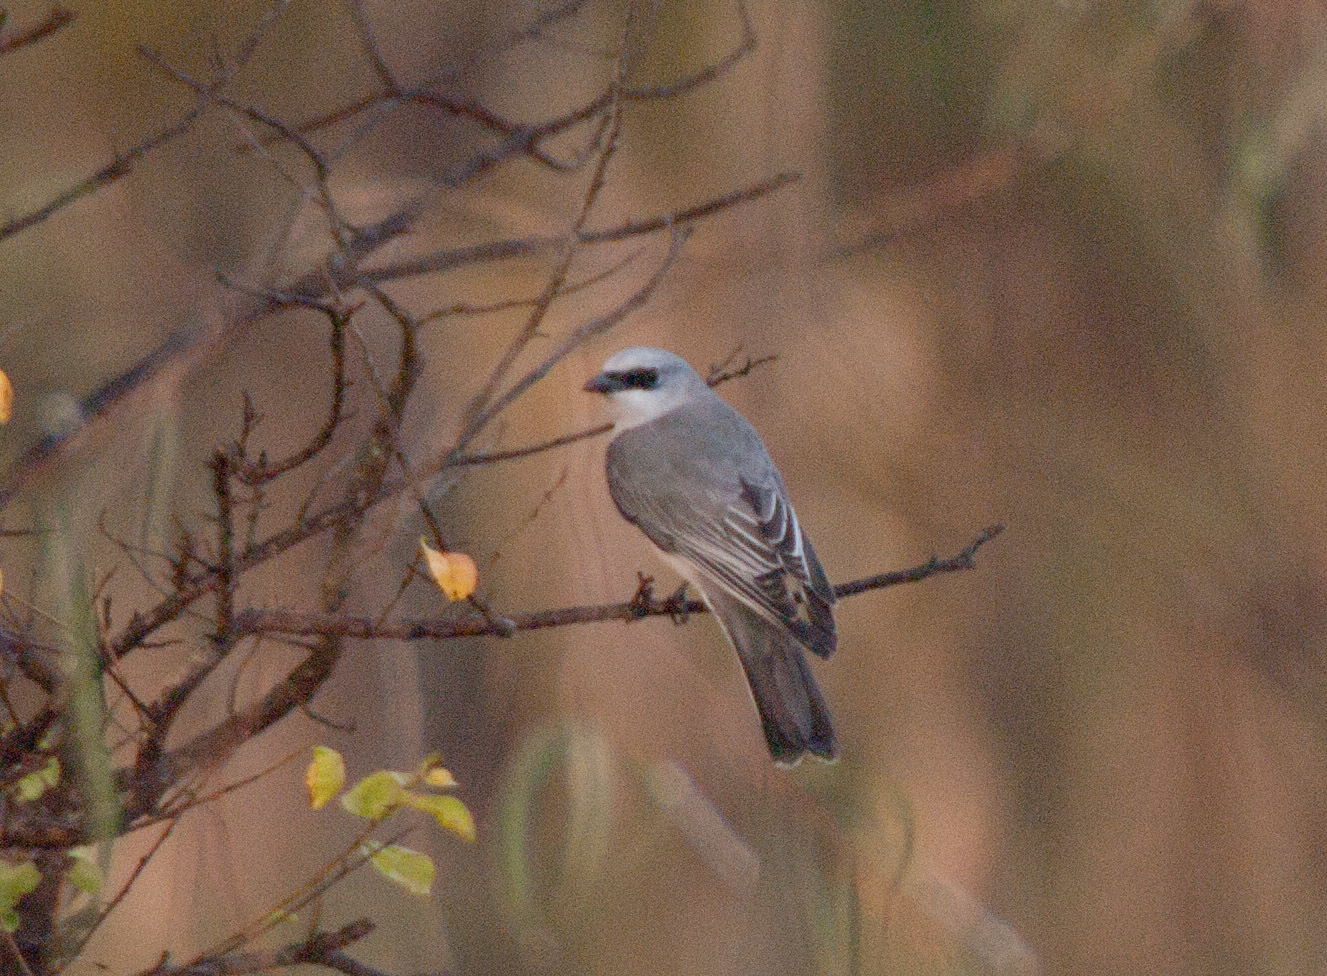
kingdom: Animalia
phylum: Chordata
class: Aves
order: Passeriformes
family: Campephagidae
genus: Coracina
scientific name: Coracina papuensis
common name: White-bellied cuckooshrike
